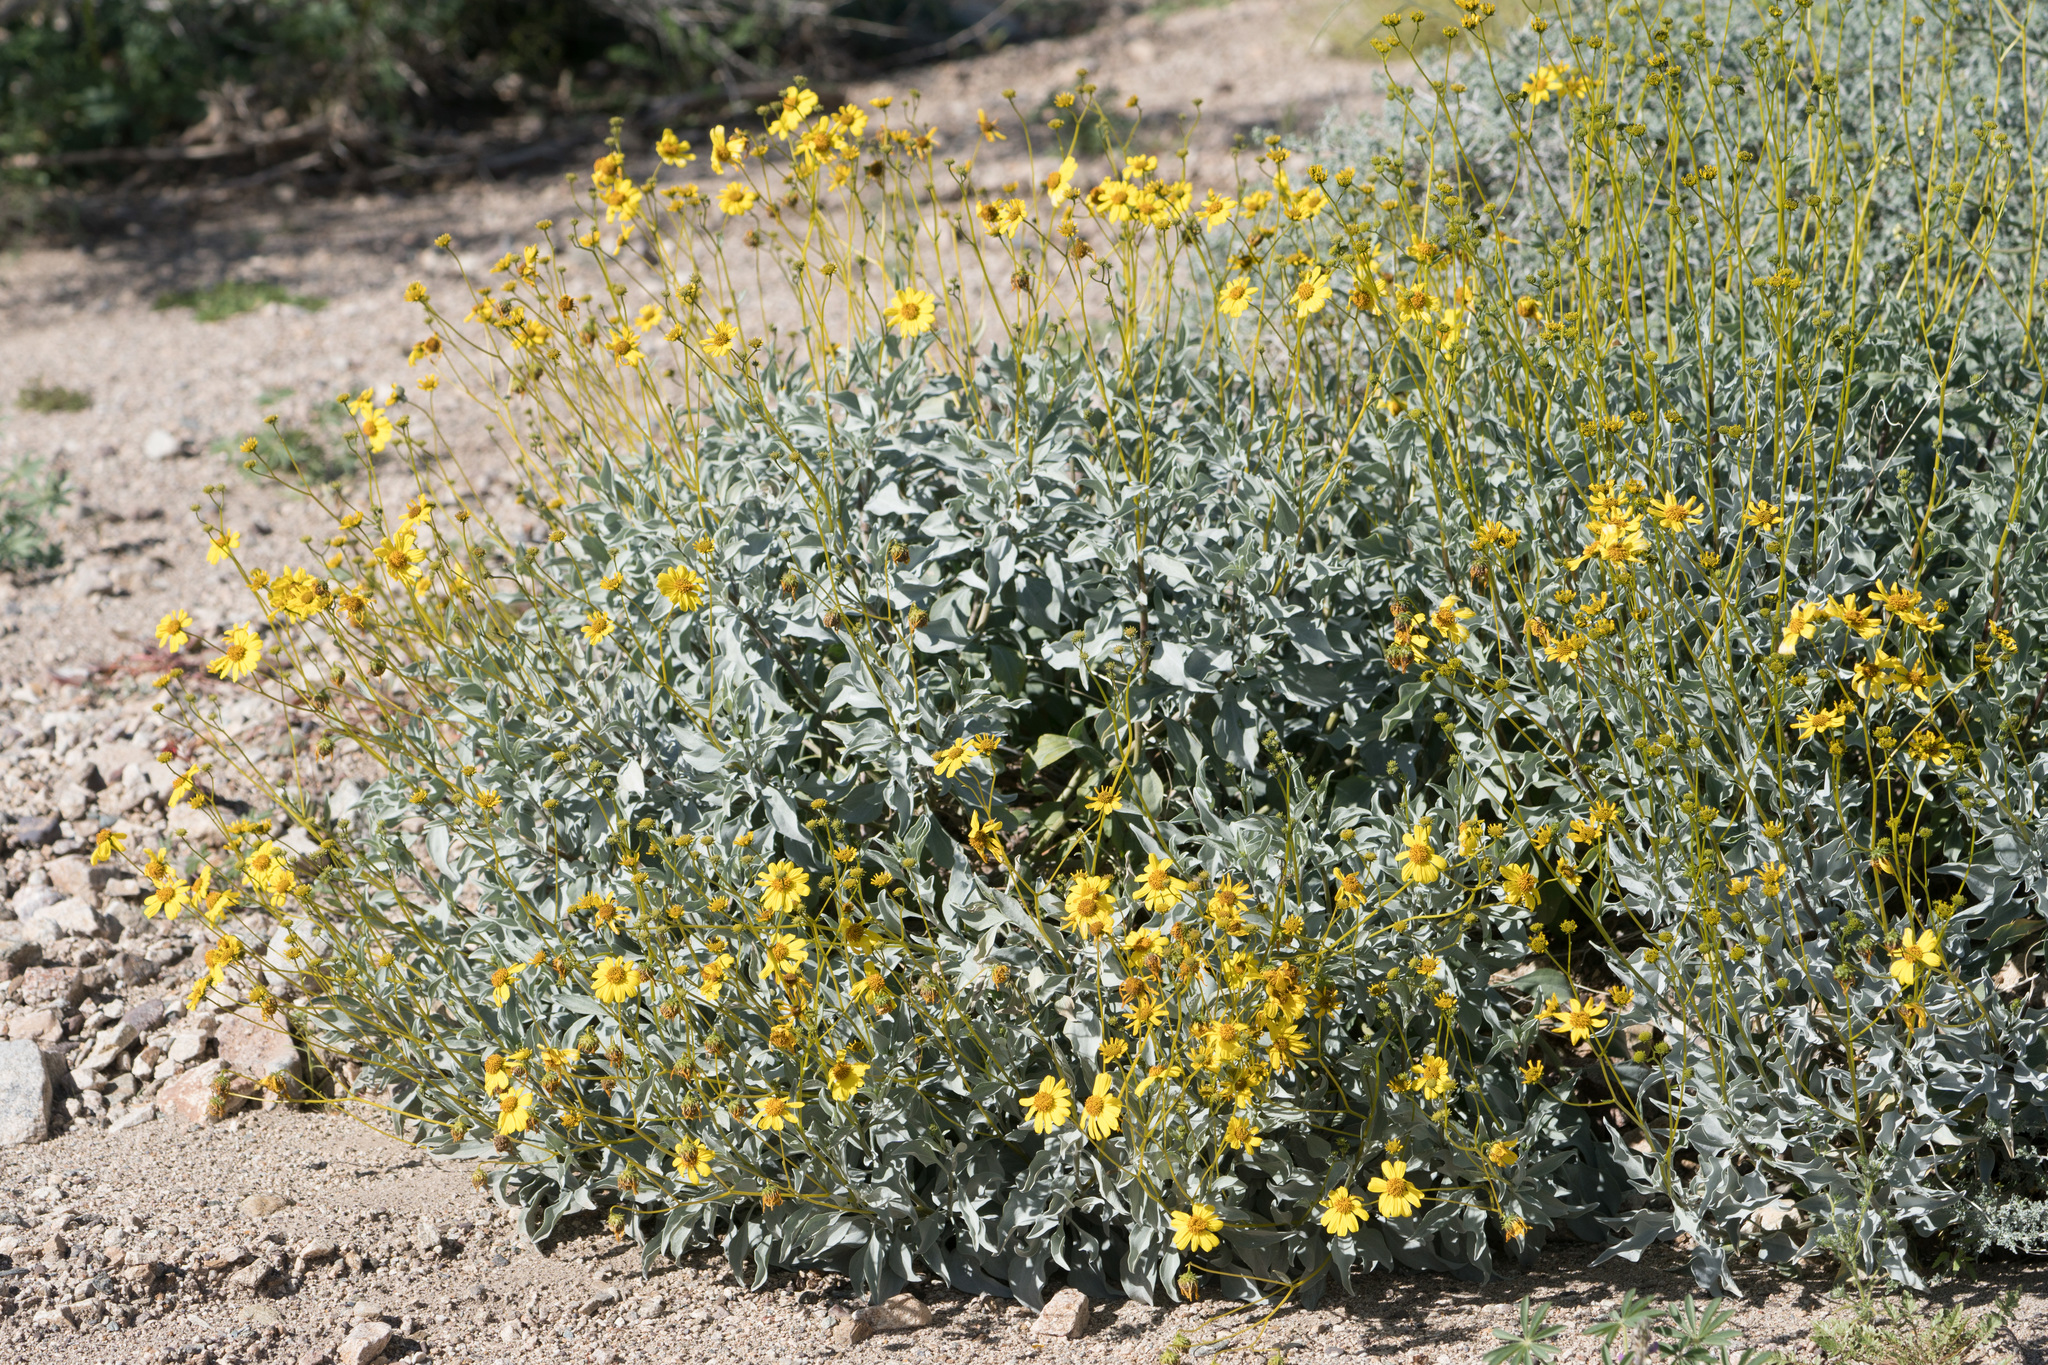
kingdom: Plantae
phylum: Tracheophyta
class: Magnoliopsida
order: Asterales
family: Asteraceae
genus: Encelia
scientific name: Encelia farinosa
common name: Brittlebush
